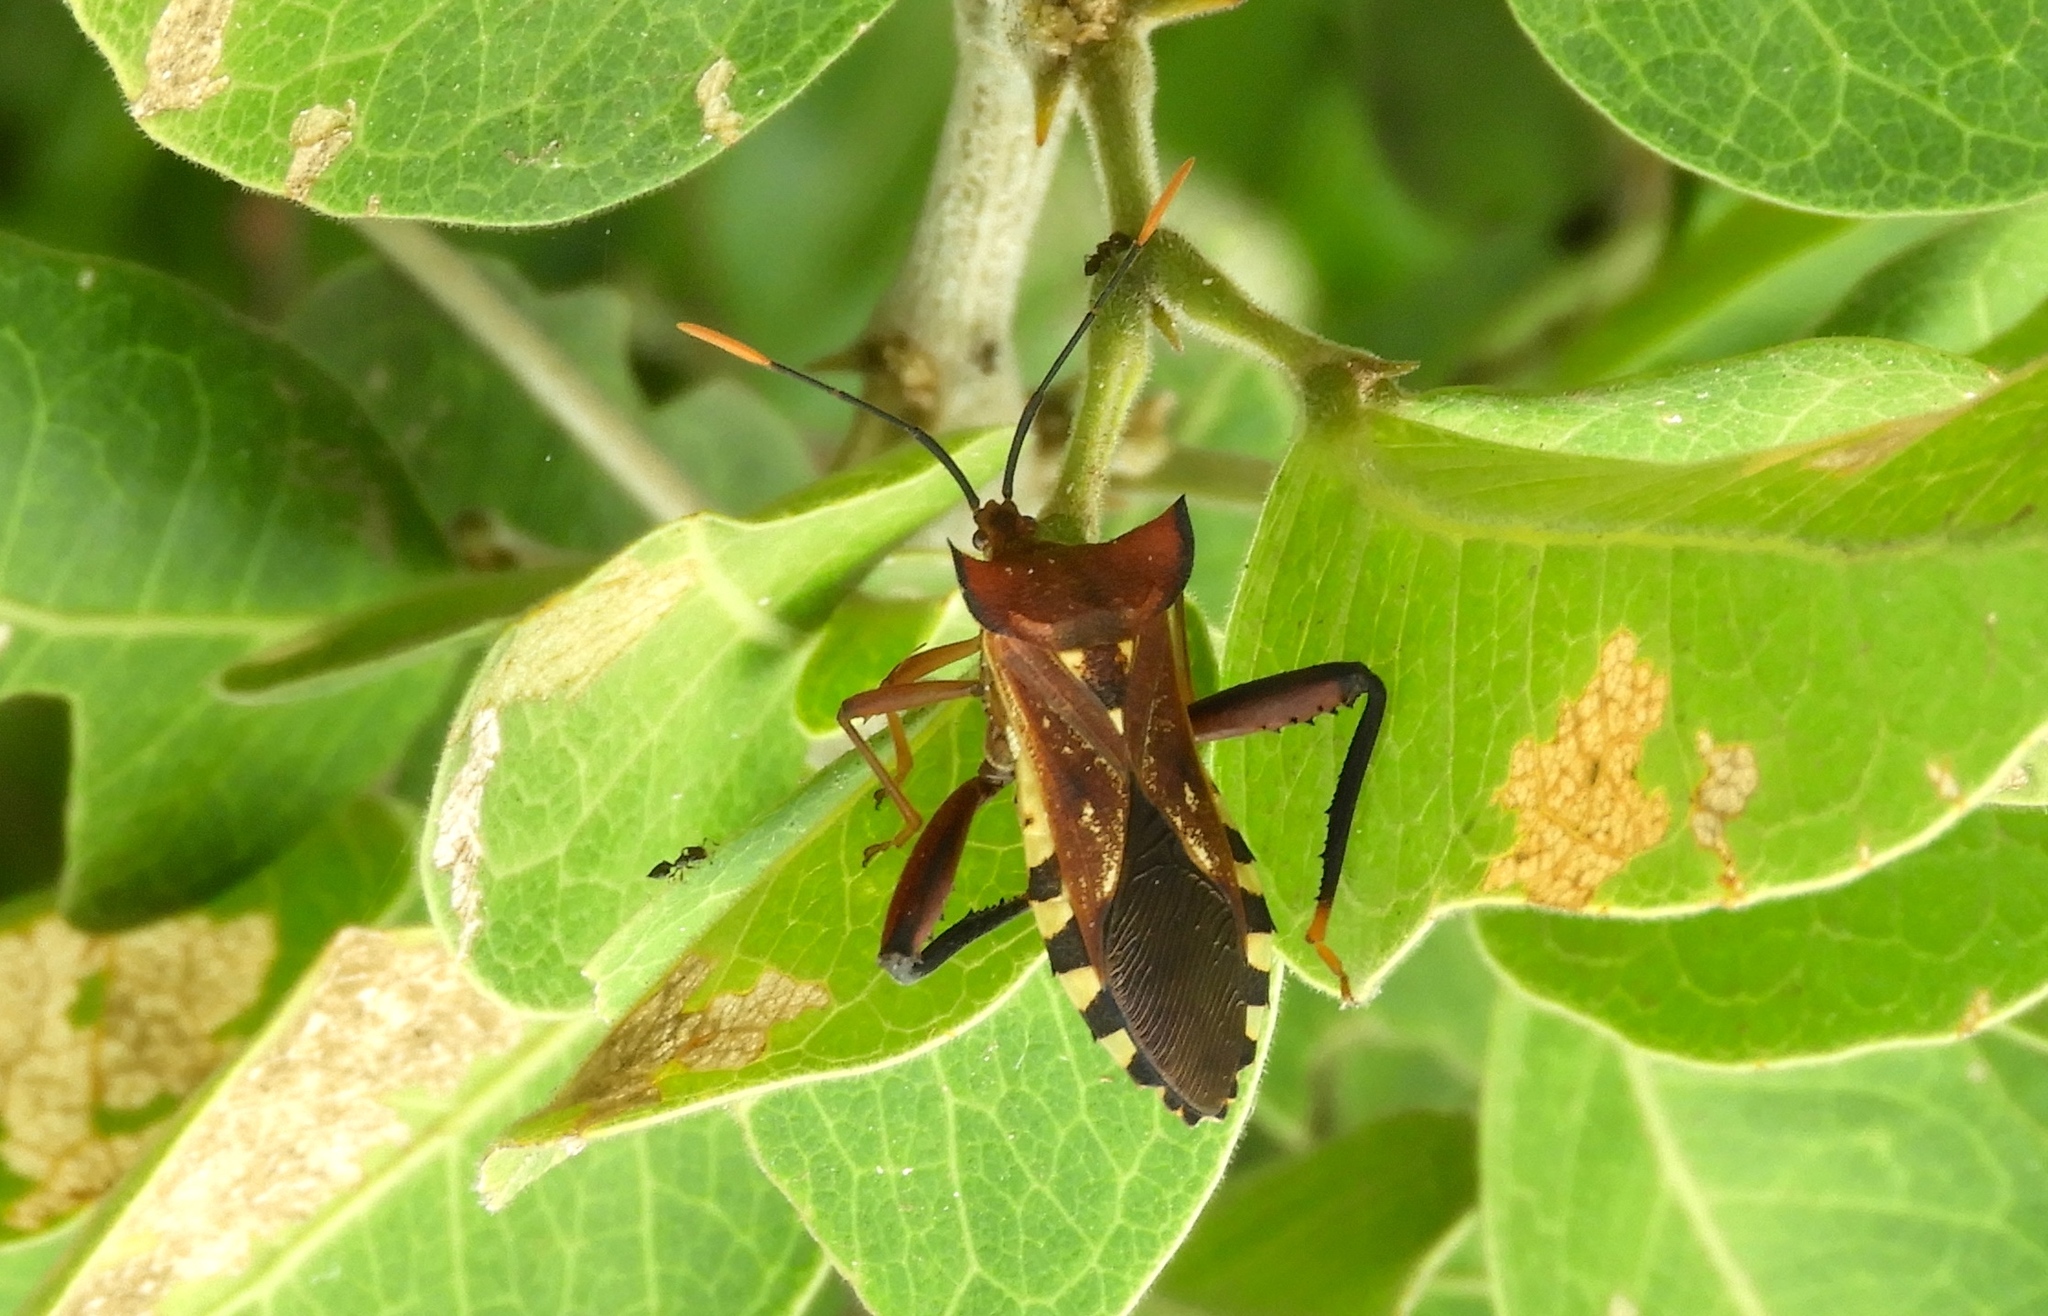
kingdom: Animalia
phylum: Arthropoda
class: Insecta
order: Hemiptera
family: Coreidae
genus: Mozena
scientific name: Mozena
